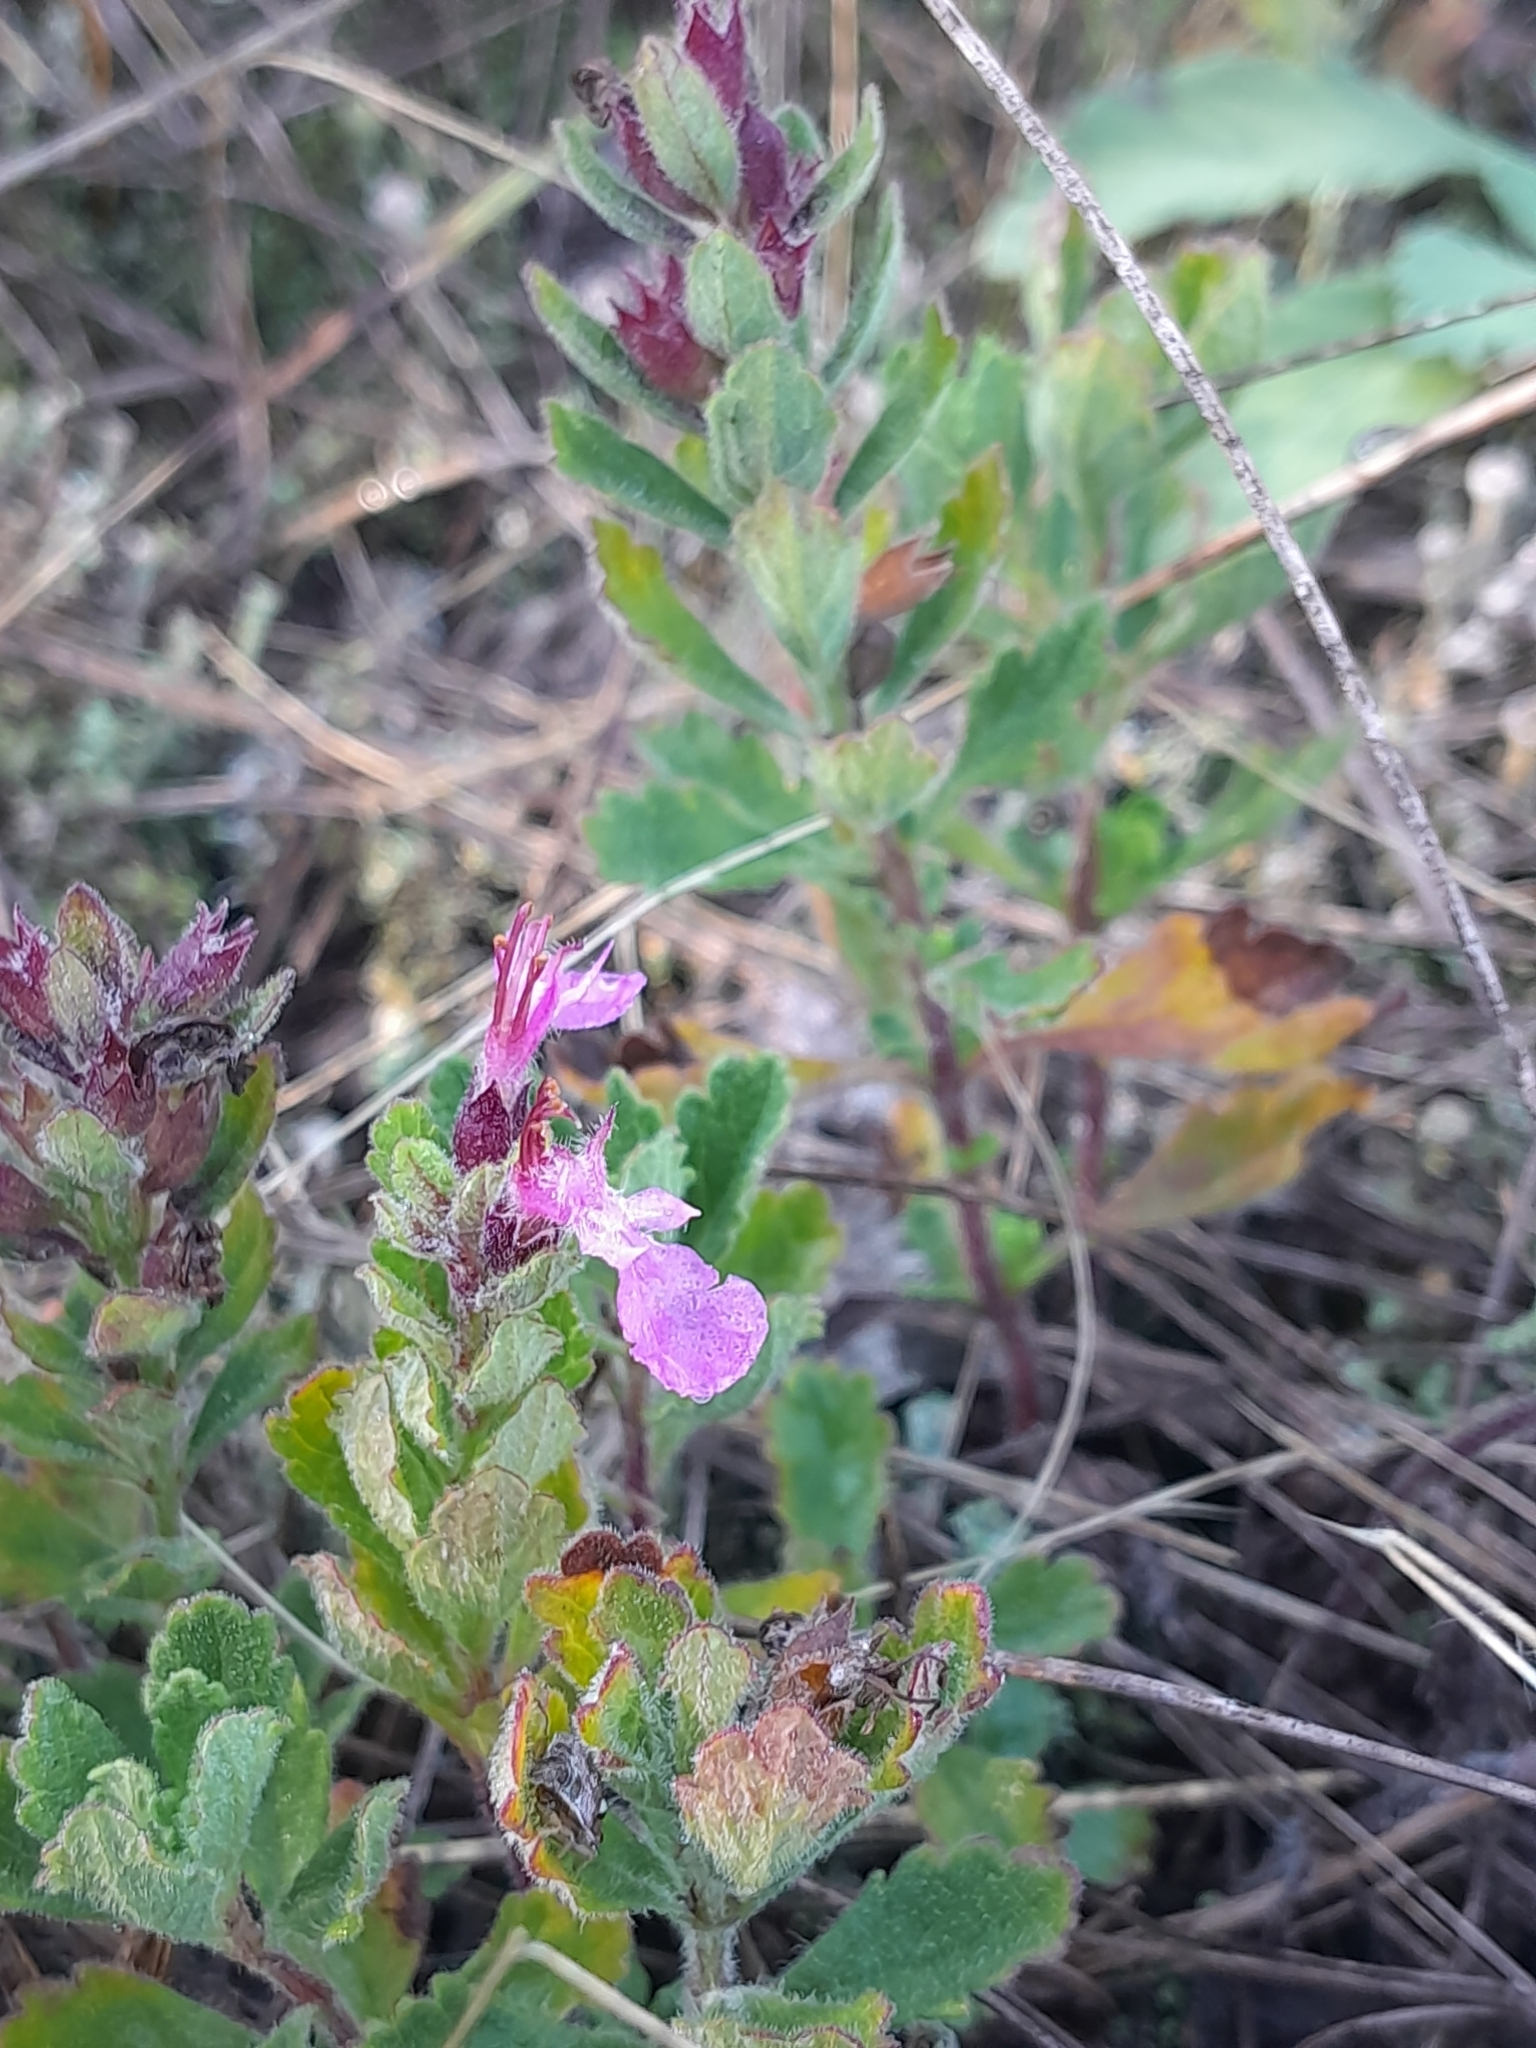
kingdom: Plantae
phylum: Tracheophyta
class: Magnoliopsida
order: Lamiales
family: Lamiaceae
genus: Teucrium
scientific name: Teucrium chamaedrys
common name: Wall germander
